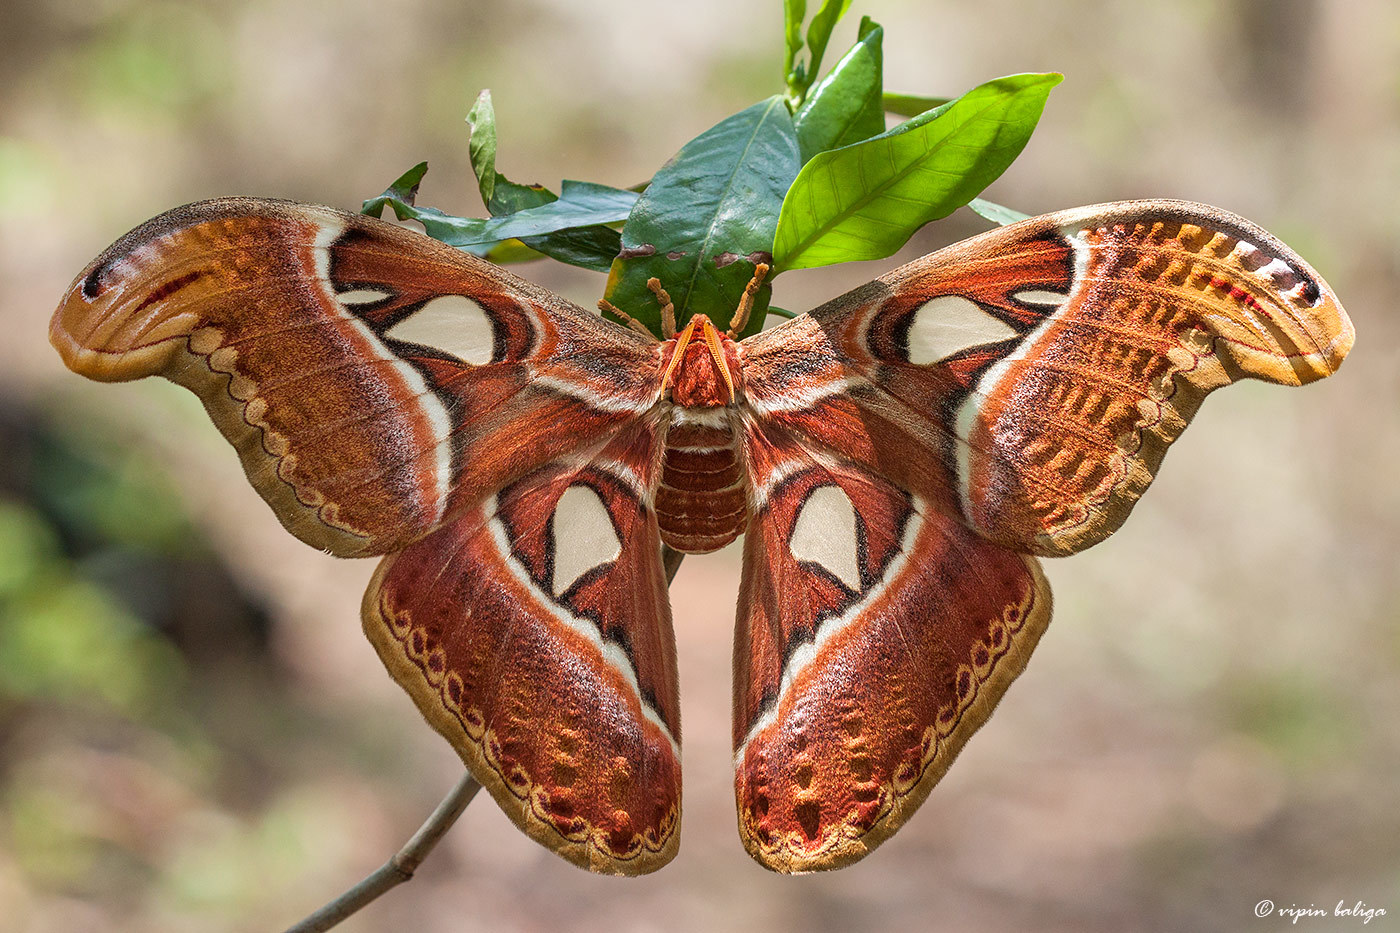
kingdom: Animalia
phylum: Arthropoda
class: Insecta
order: Lepidoptera
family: Saturniidae
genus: Attacus
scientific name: Attacus taprobanis
